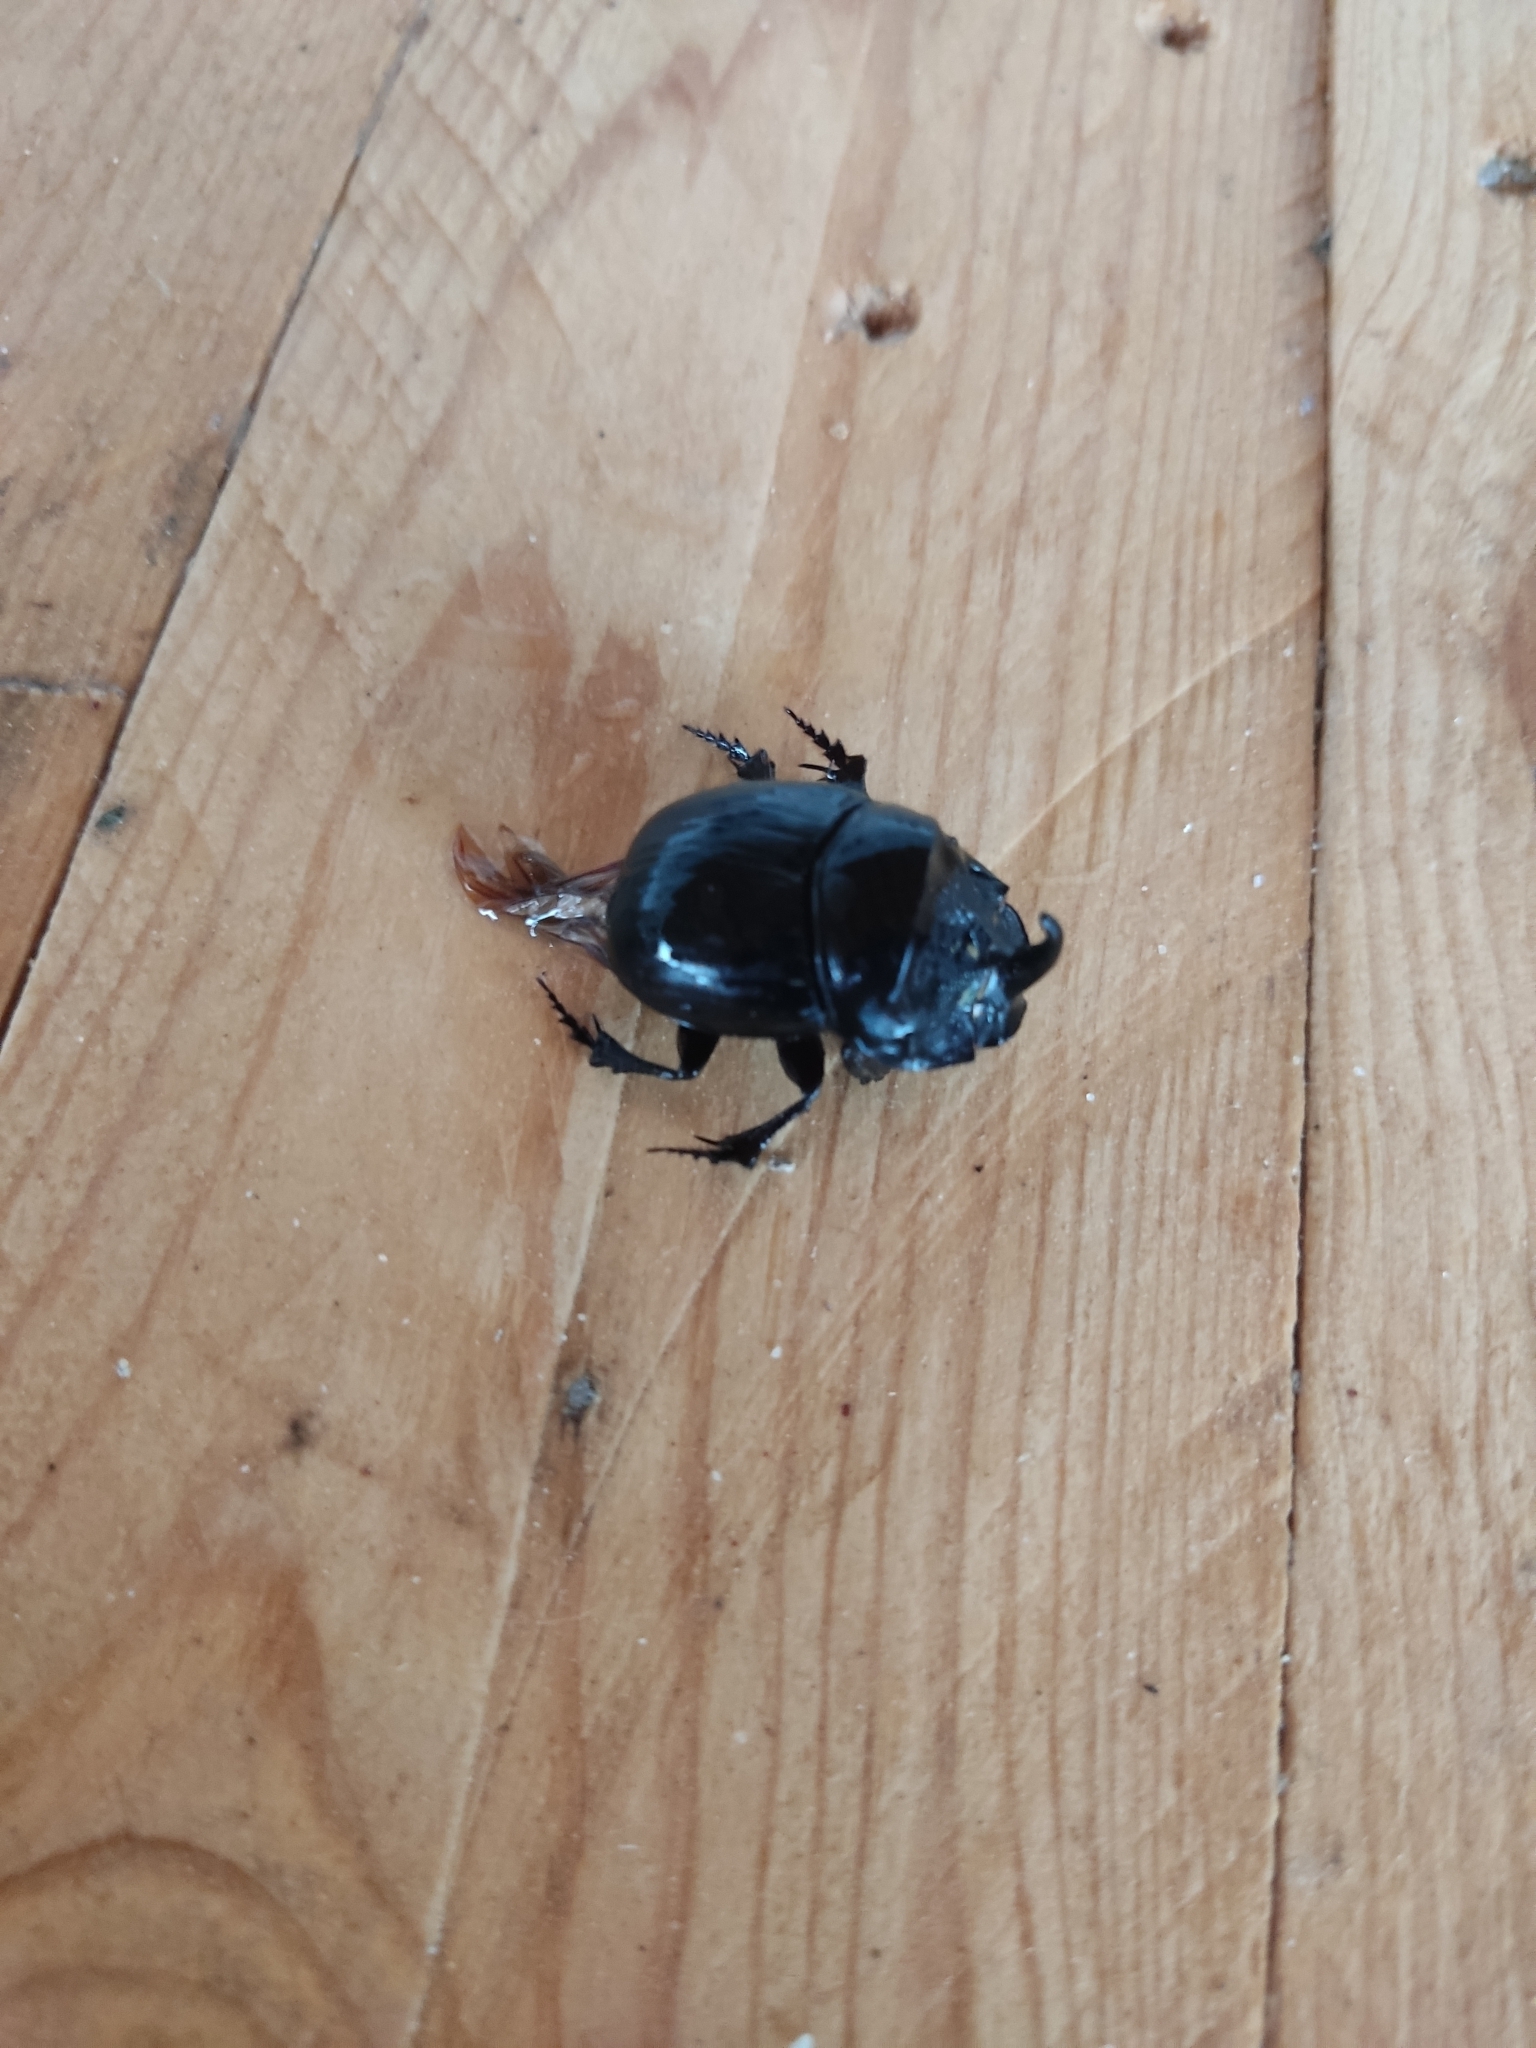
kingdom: Animalia
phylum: Arthropoda
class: Insecta
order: Coleoptera
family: Scarabaeidae
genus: Copris
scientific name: Copris hispanus
